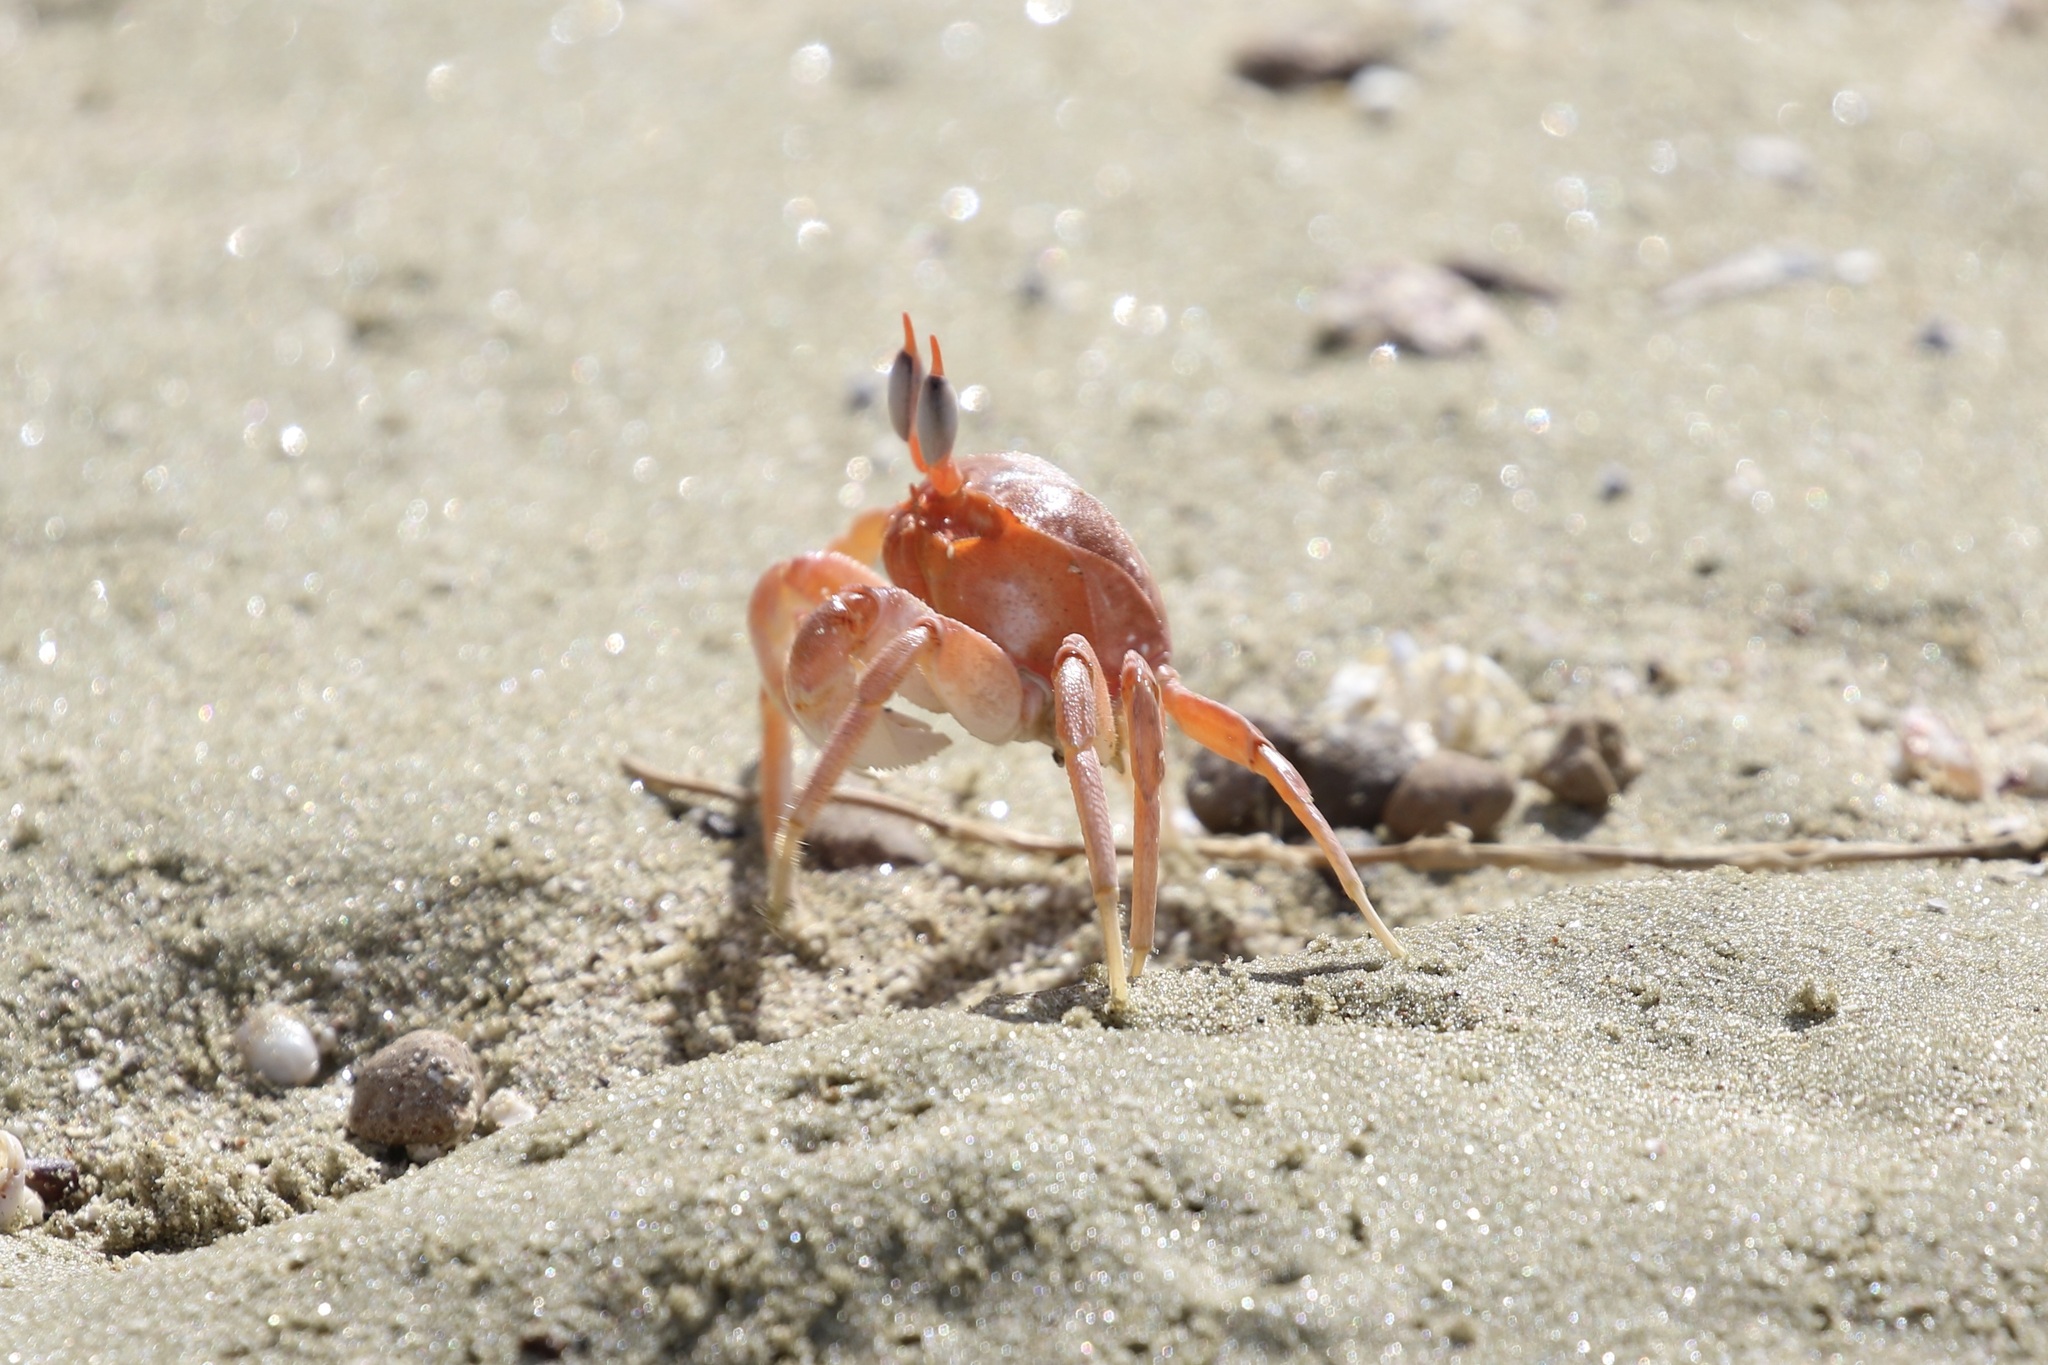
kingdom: Animalia
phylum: Arthropoda
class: Malacostraca
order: Decapoda
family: Ocypodidae
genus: Ocypode
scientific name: Ocypode gaudichaudii
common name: Pacific ghost crab
